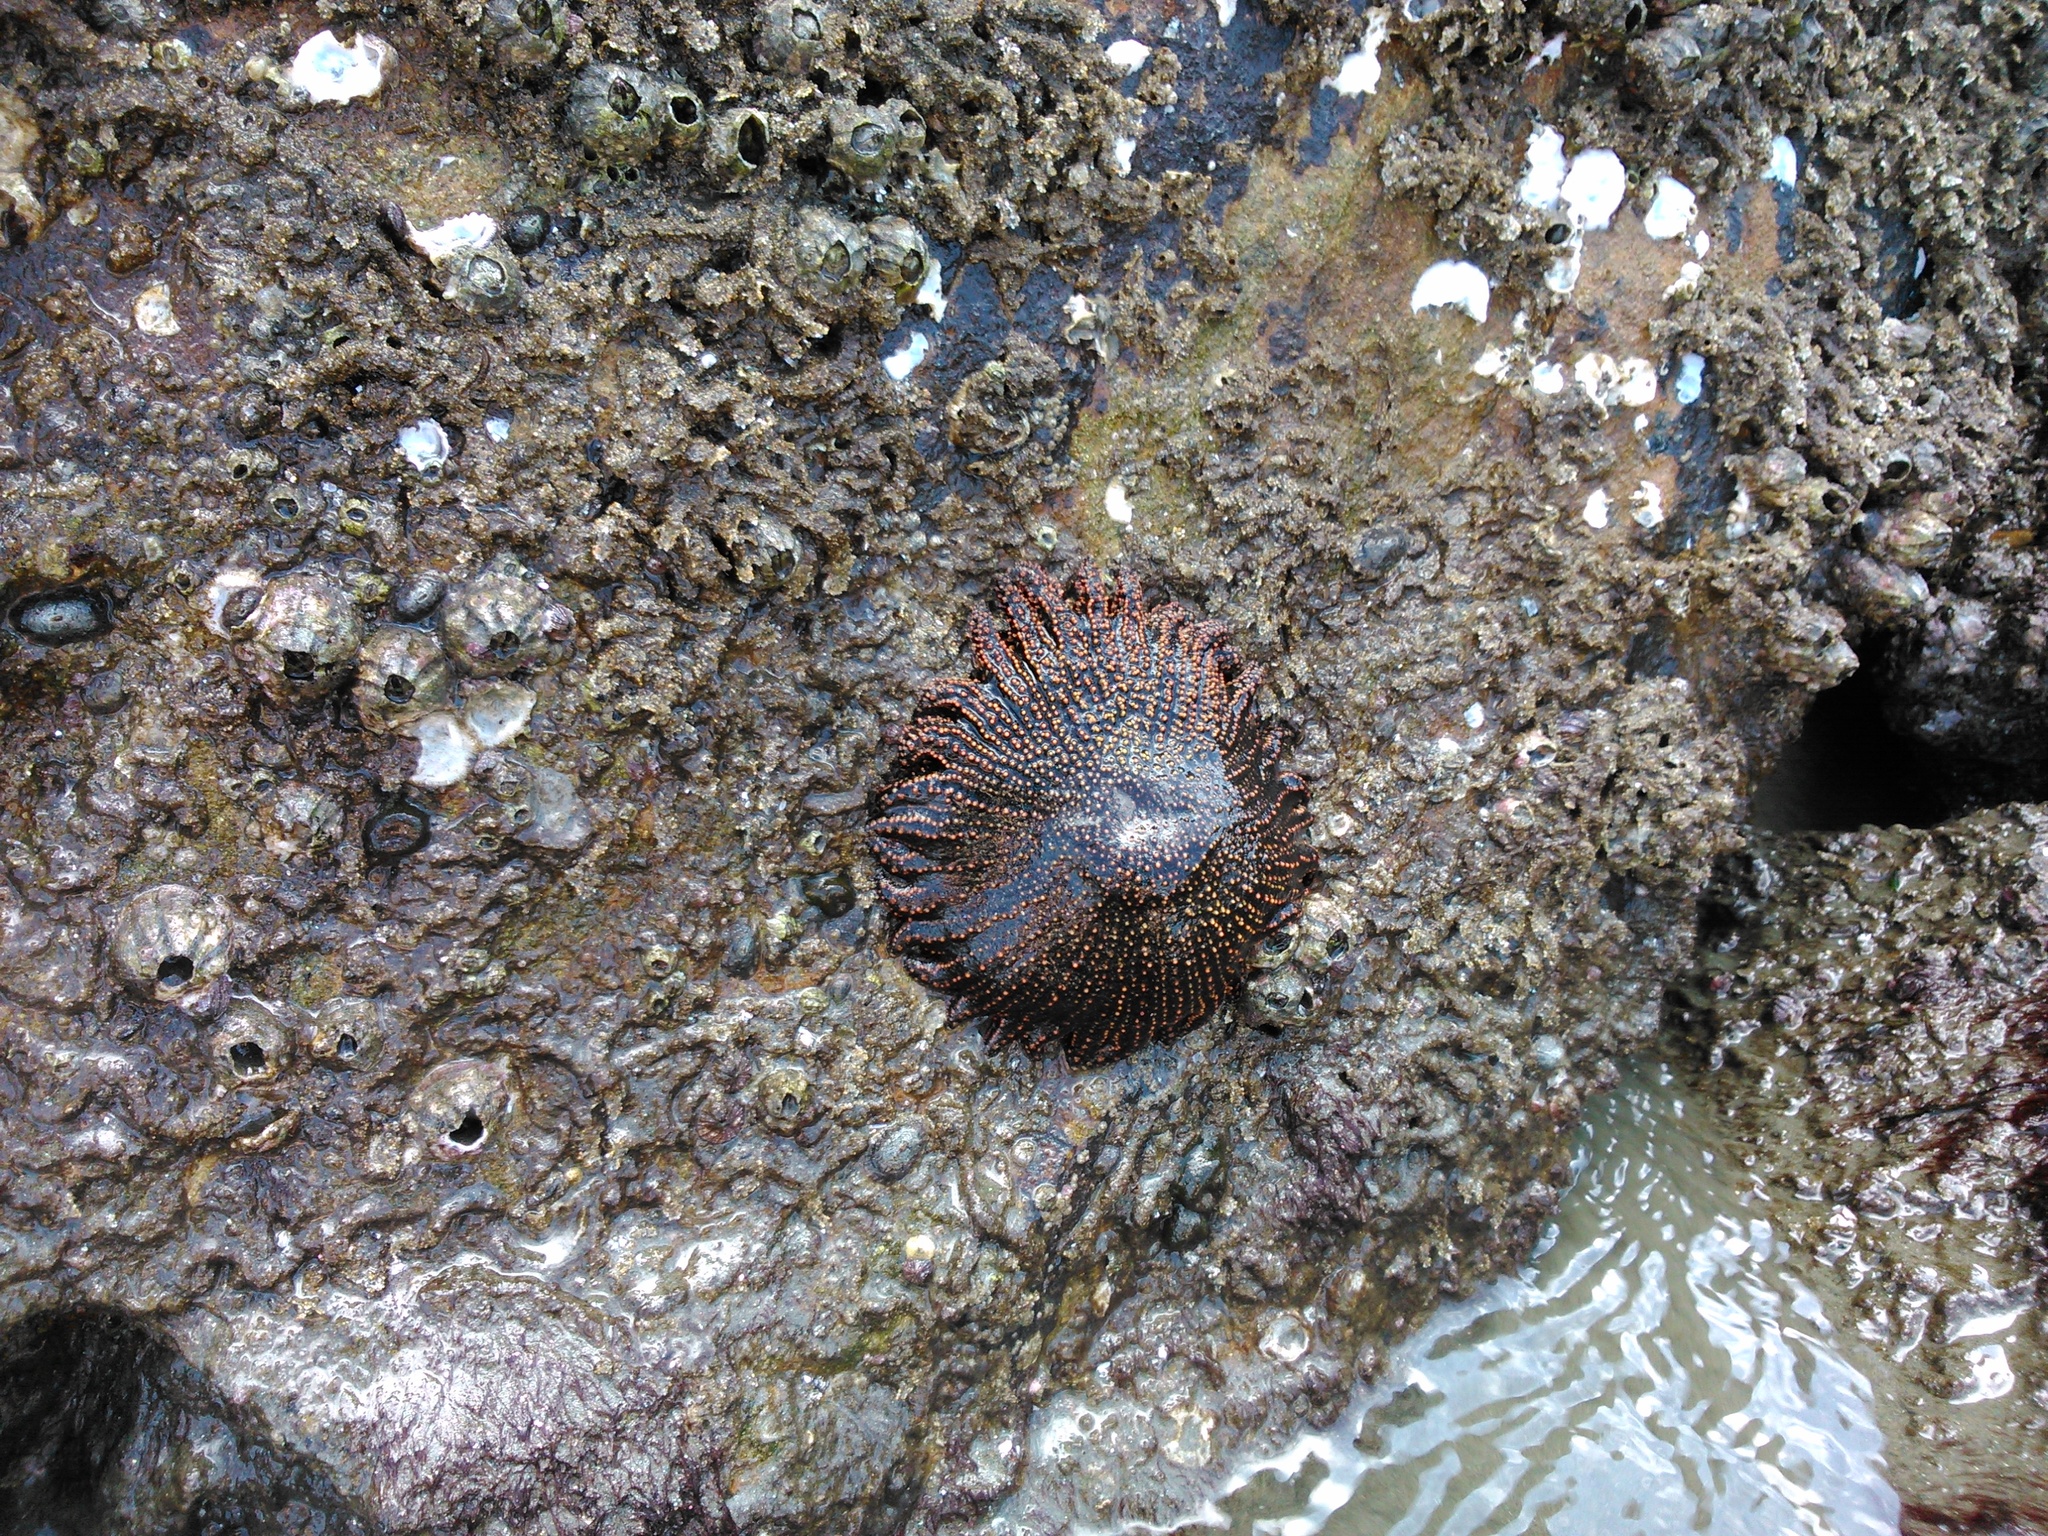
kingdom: Animalia
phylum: Echinodermata
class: Asteroidea
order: Forcipulatida
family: Heliasteridae
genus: Heliaster
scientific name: Heliaster cumingi
